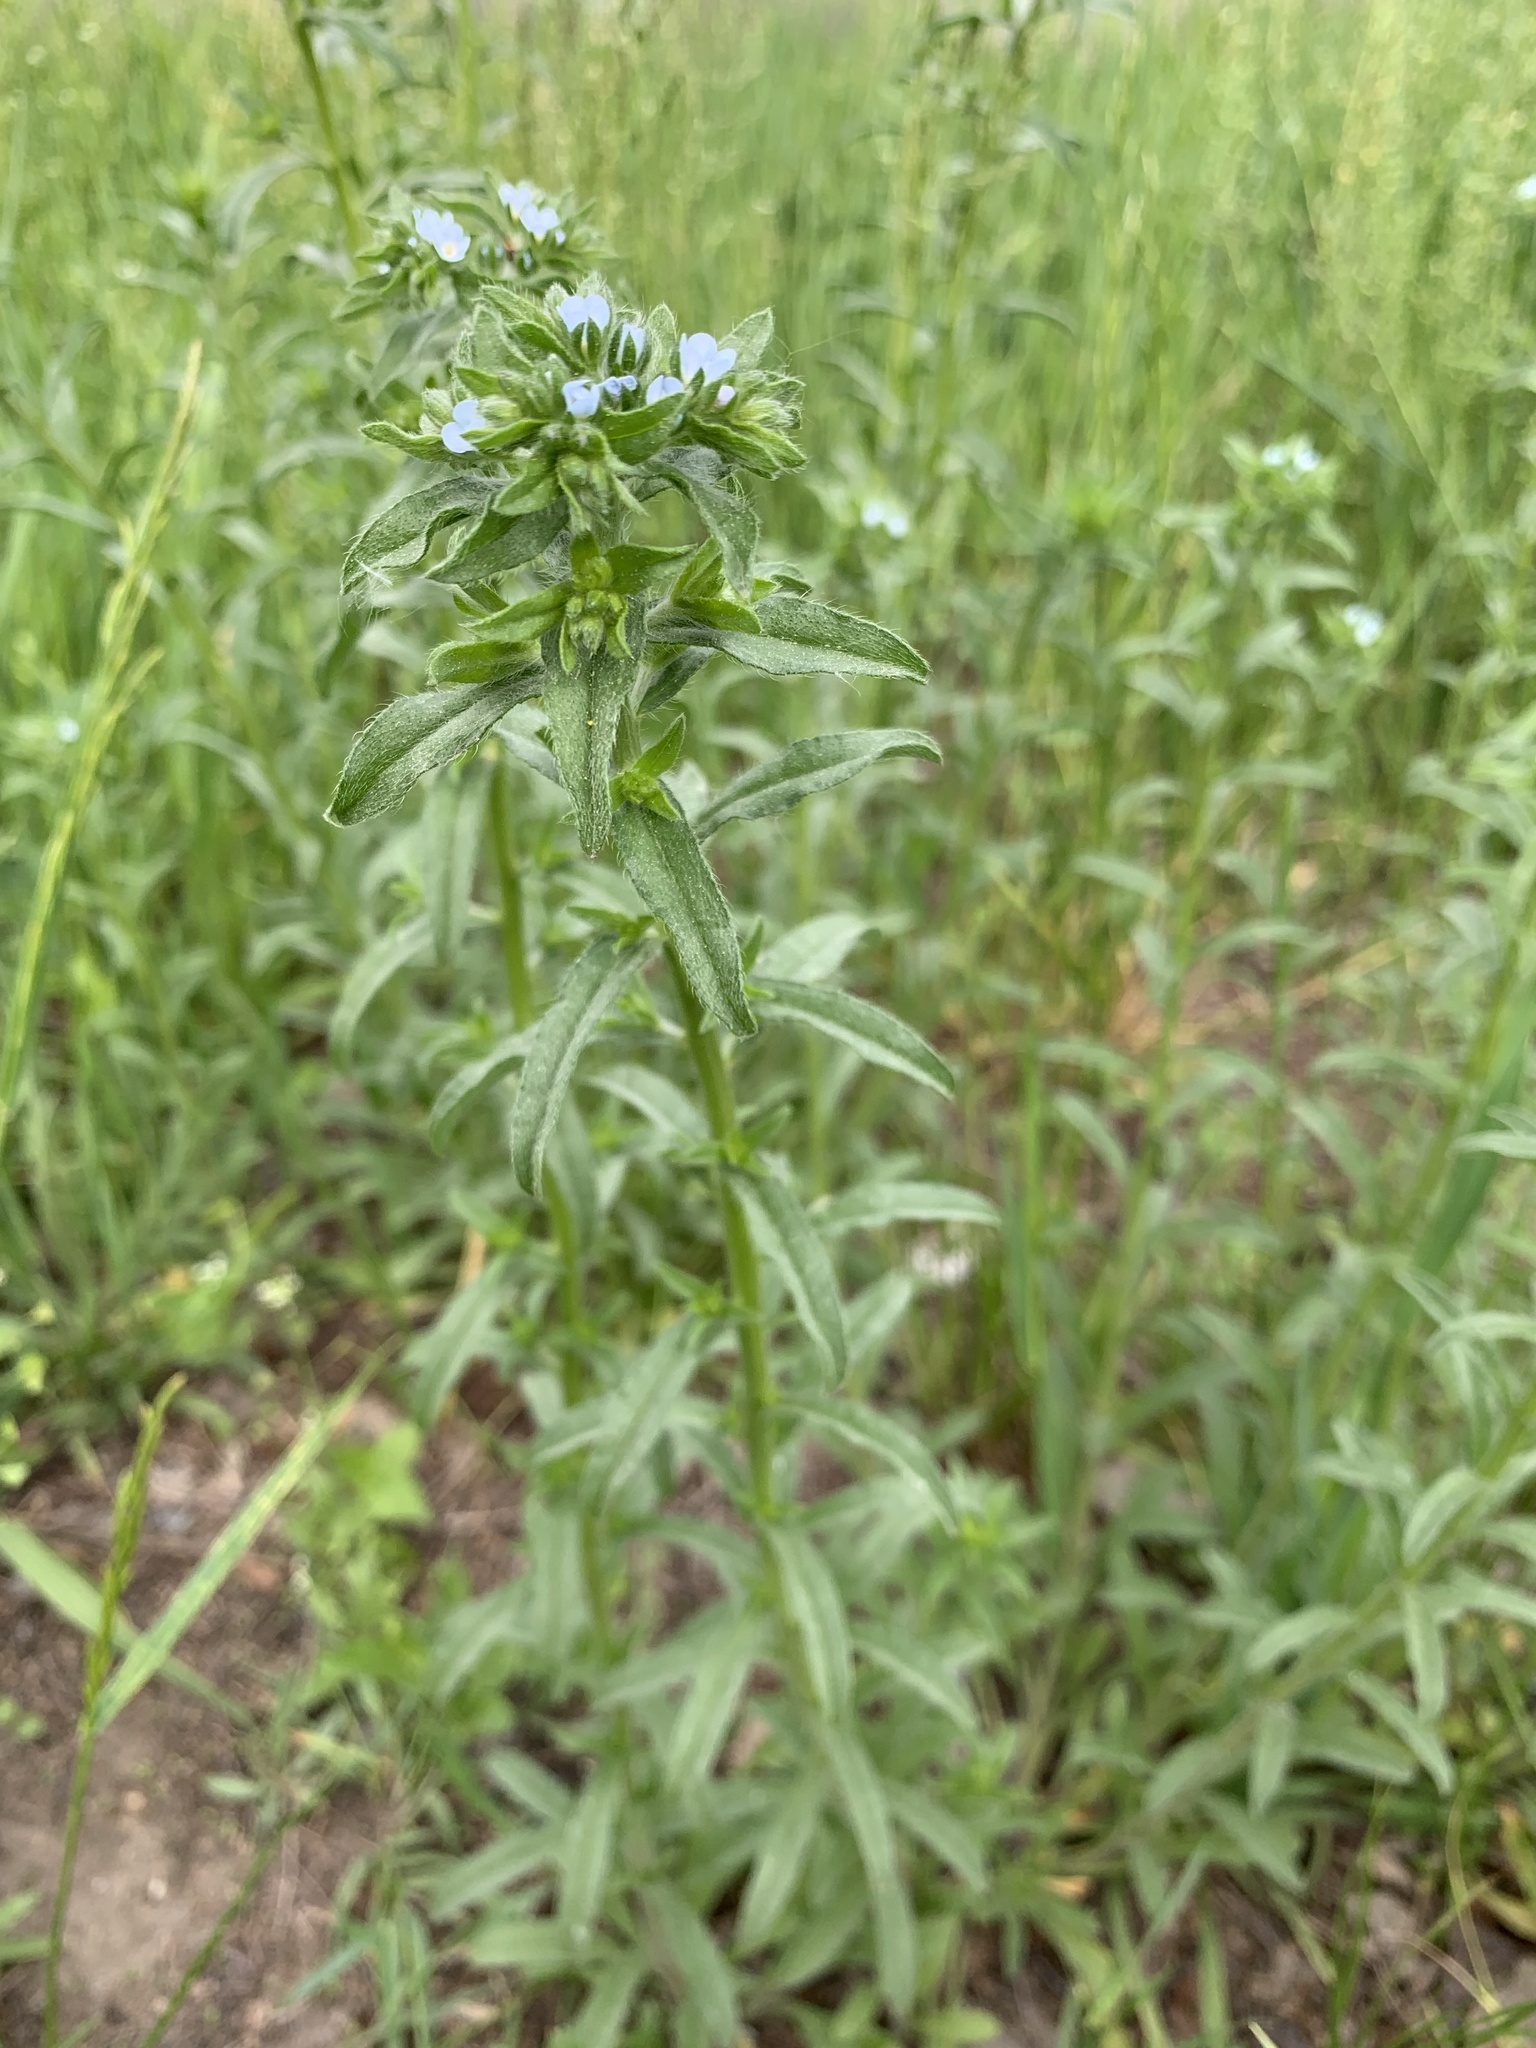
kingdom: Plantae
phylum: Tracheophyta
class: Magnoliopsida
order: Boraginales
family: Boraginaceae
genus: Lappula
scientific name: Lappula squarrosa
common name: European stickseed
